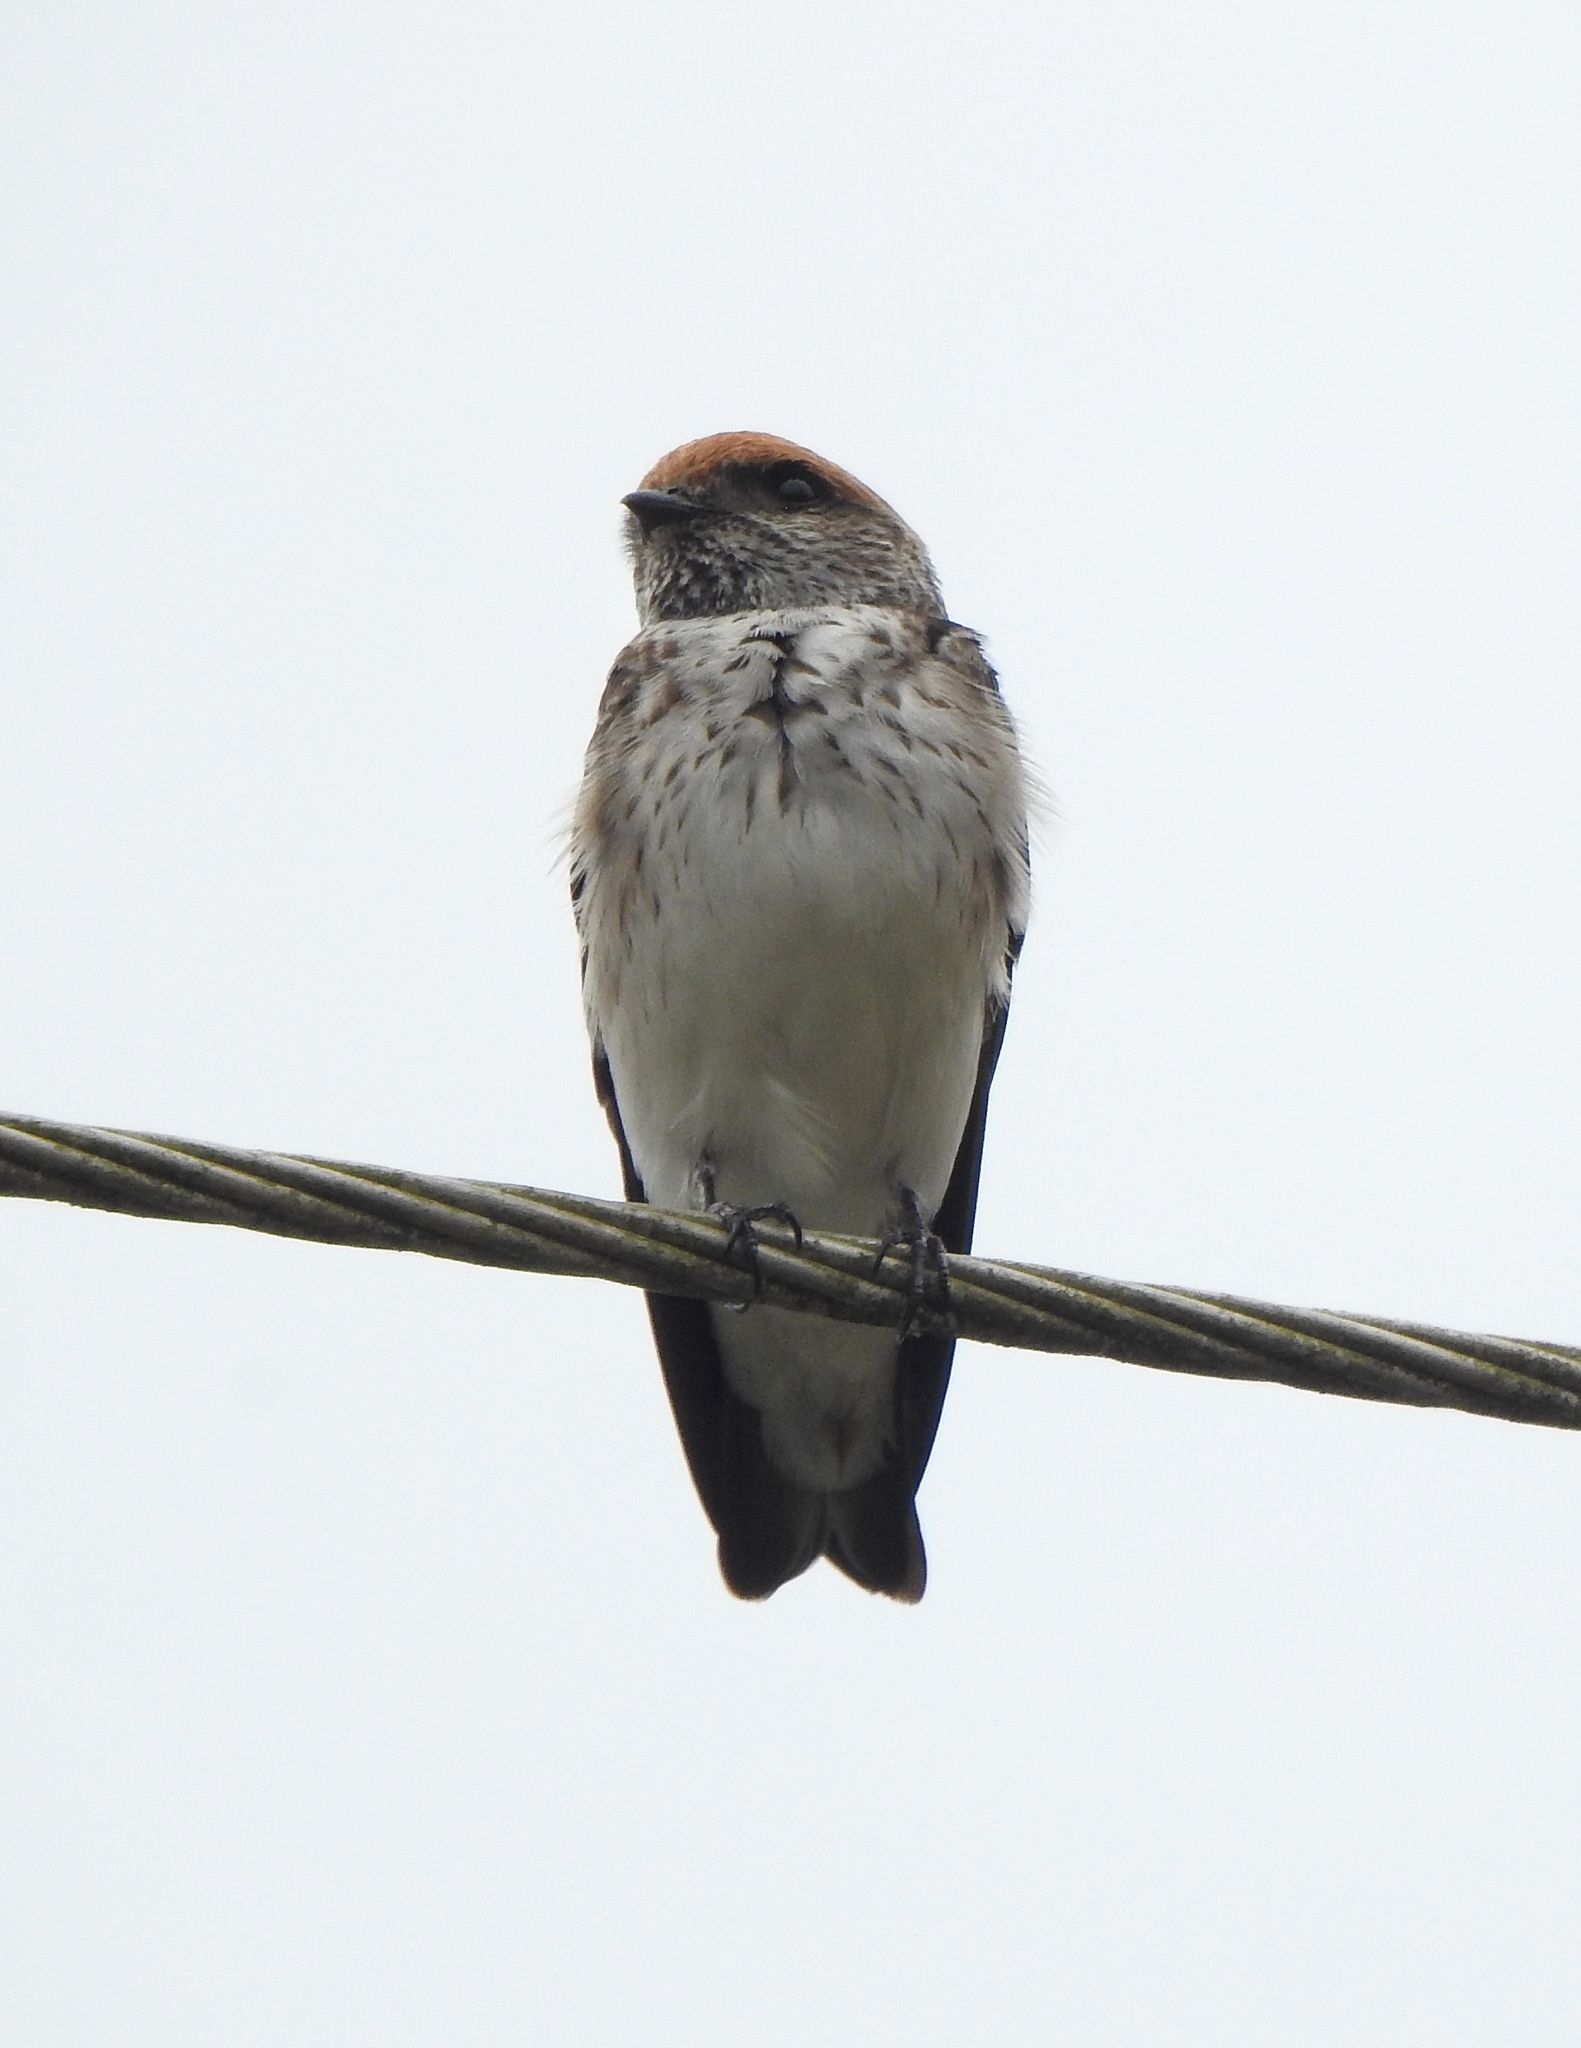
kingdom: Animalia
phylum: Chordata
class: Aves
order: Passeriformes
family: Hirundinidae
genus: Petrochelidon
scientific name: Petrochelidon fluvicola
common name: Streak-throated swallow
